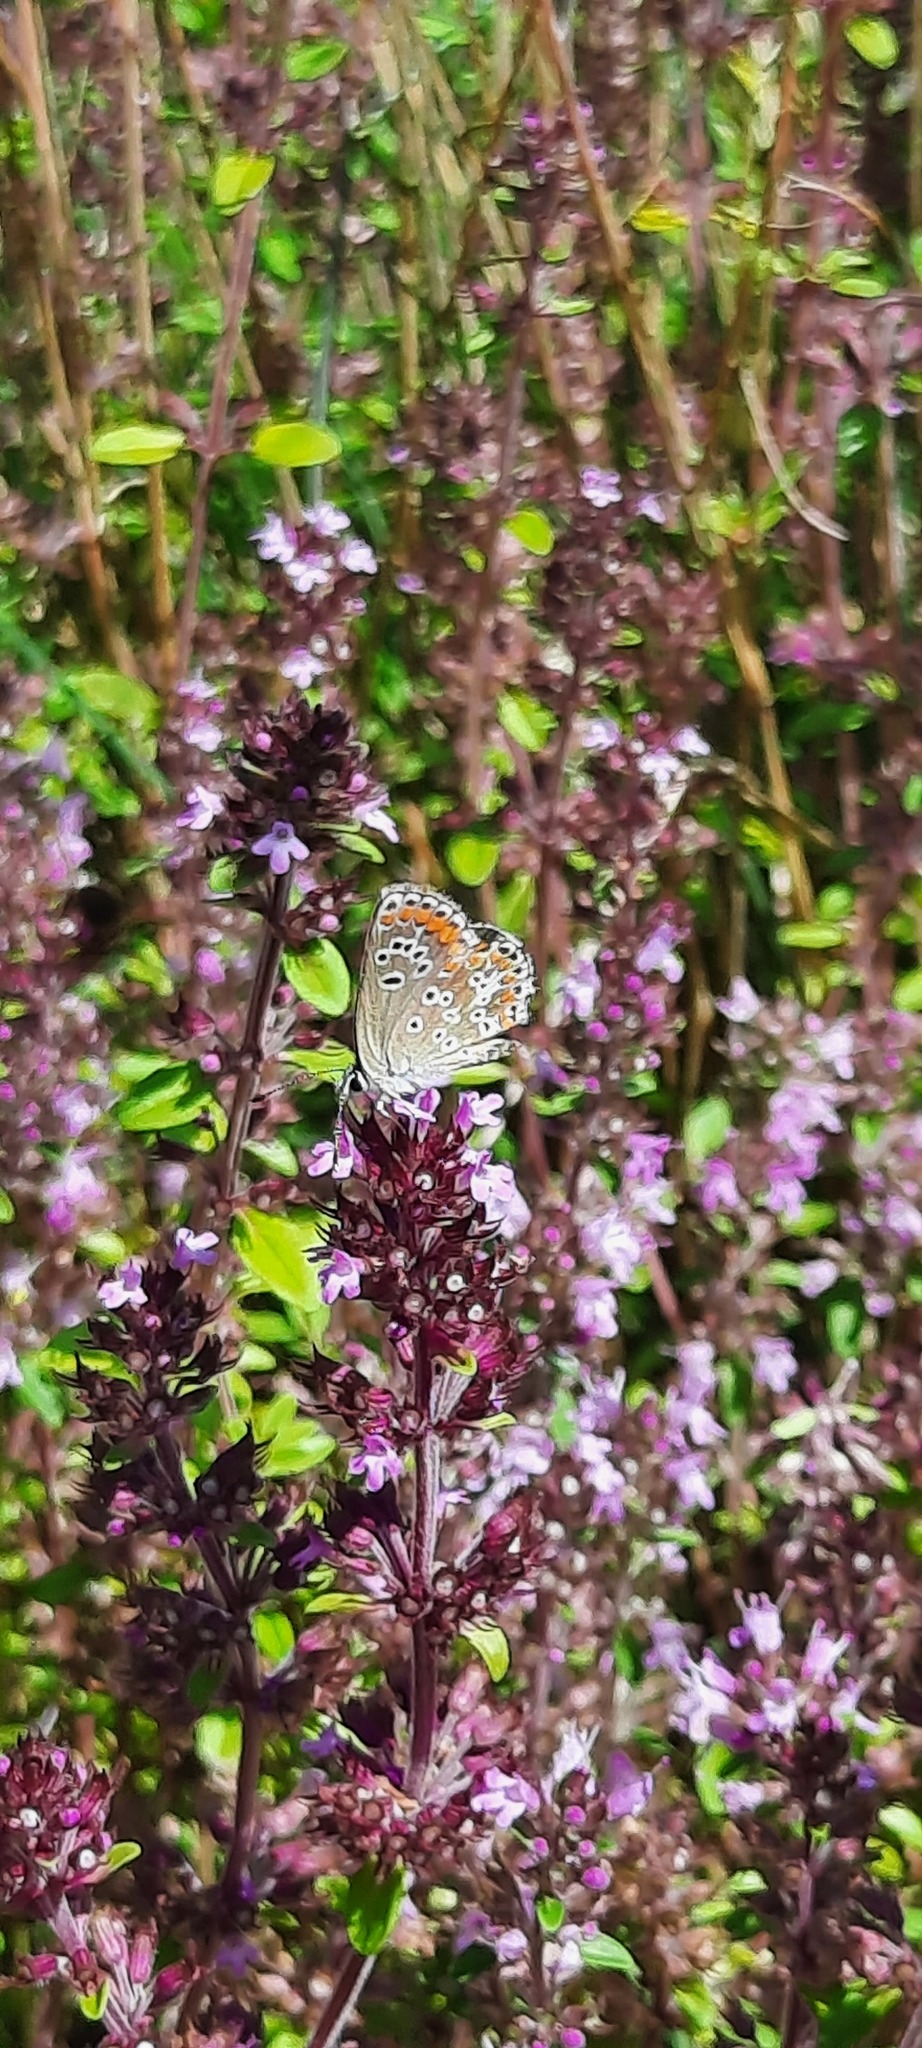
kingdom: Animalia
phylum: Arthropoda
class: Insecta
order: Lepidoptera
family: Lycaenidae
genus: Aricia
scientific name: Aricia agestis
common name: Brown argus
